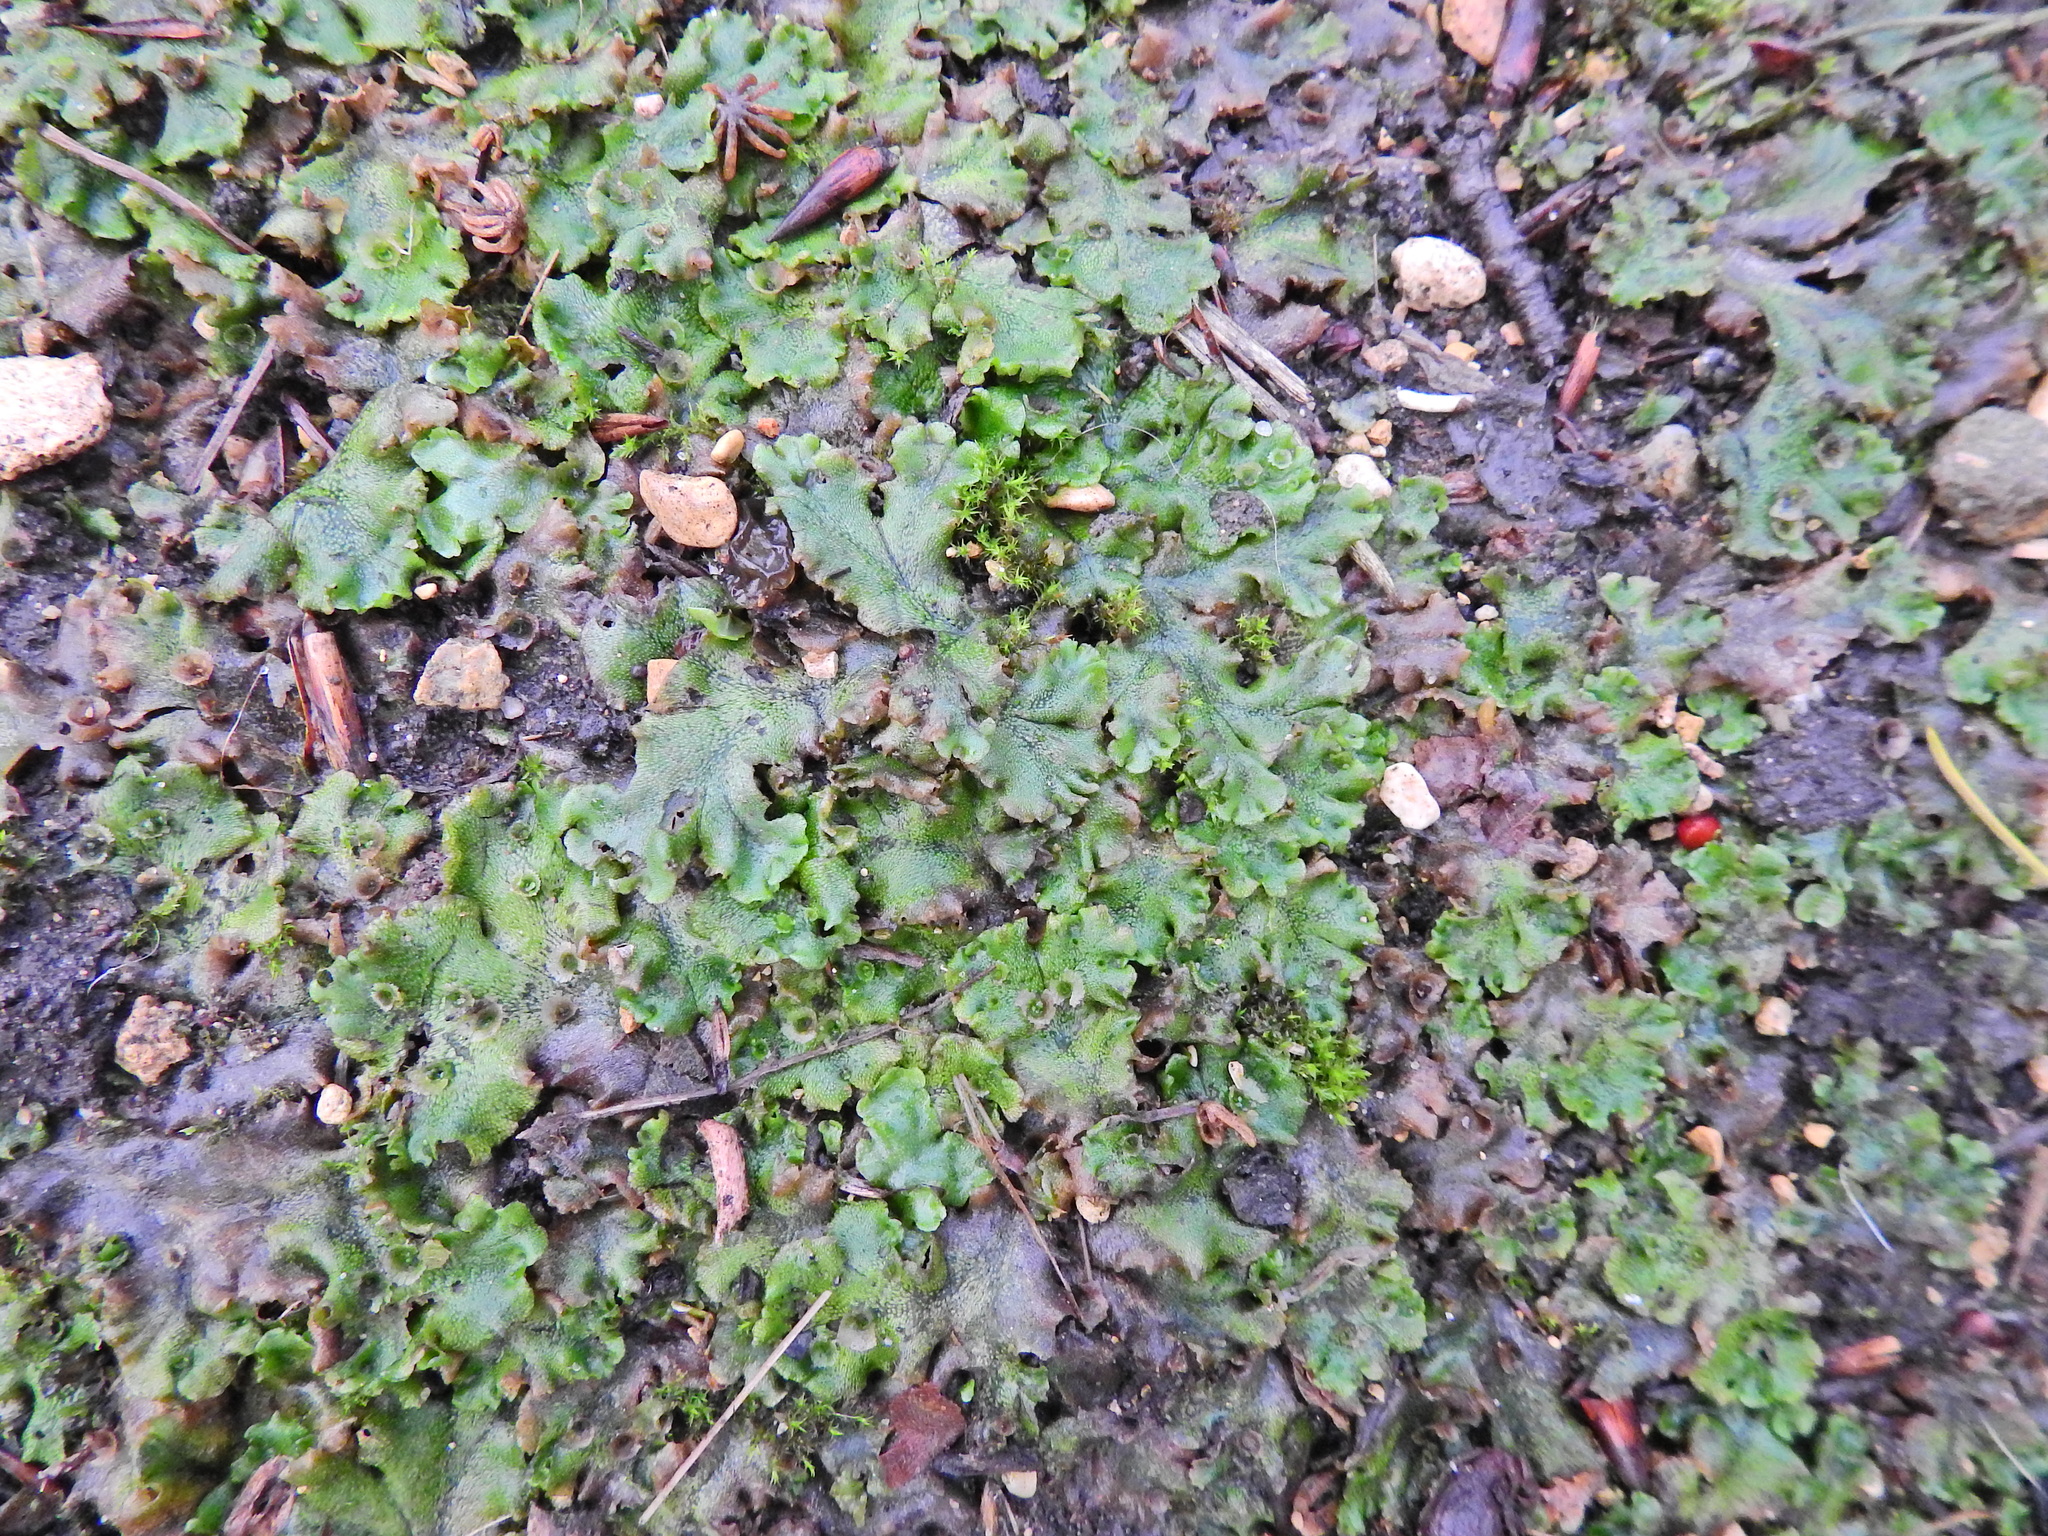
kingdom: Plantae
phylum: Marchantiophyta
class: Marchantiopsida
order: Marchantiales
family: Marchantiaceae
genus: Marchantia
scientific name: Marchantia polymorpha
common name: Common liverwort
